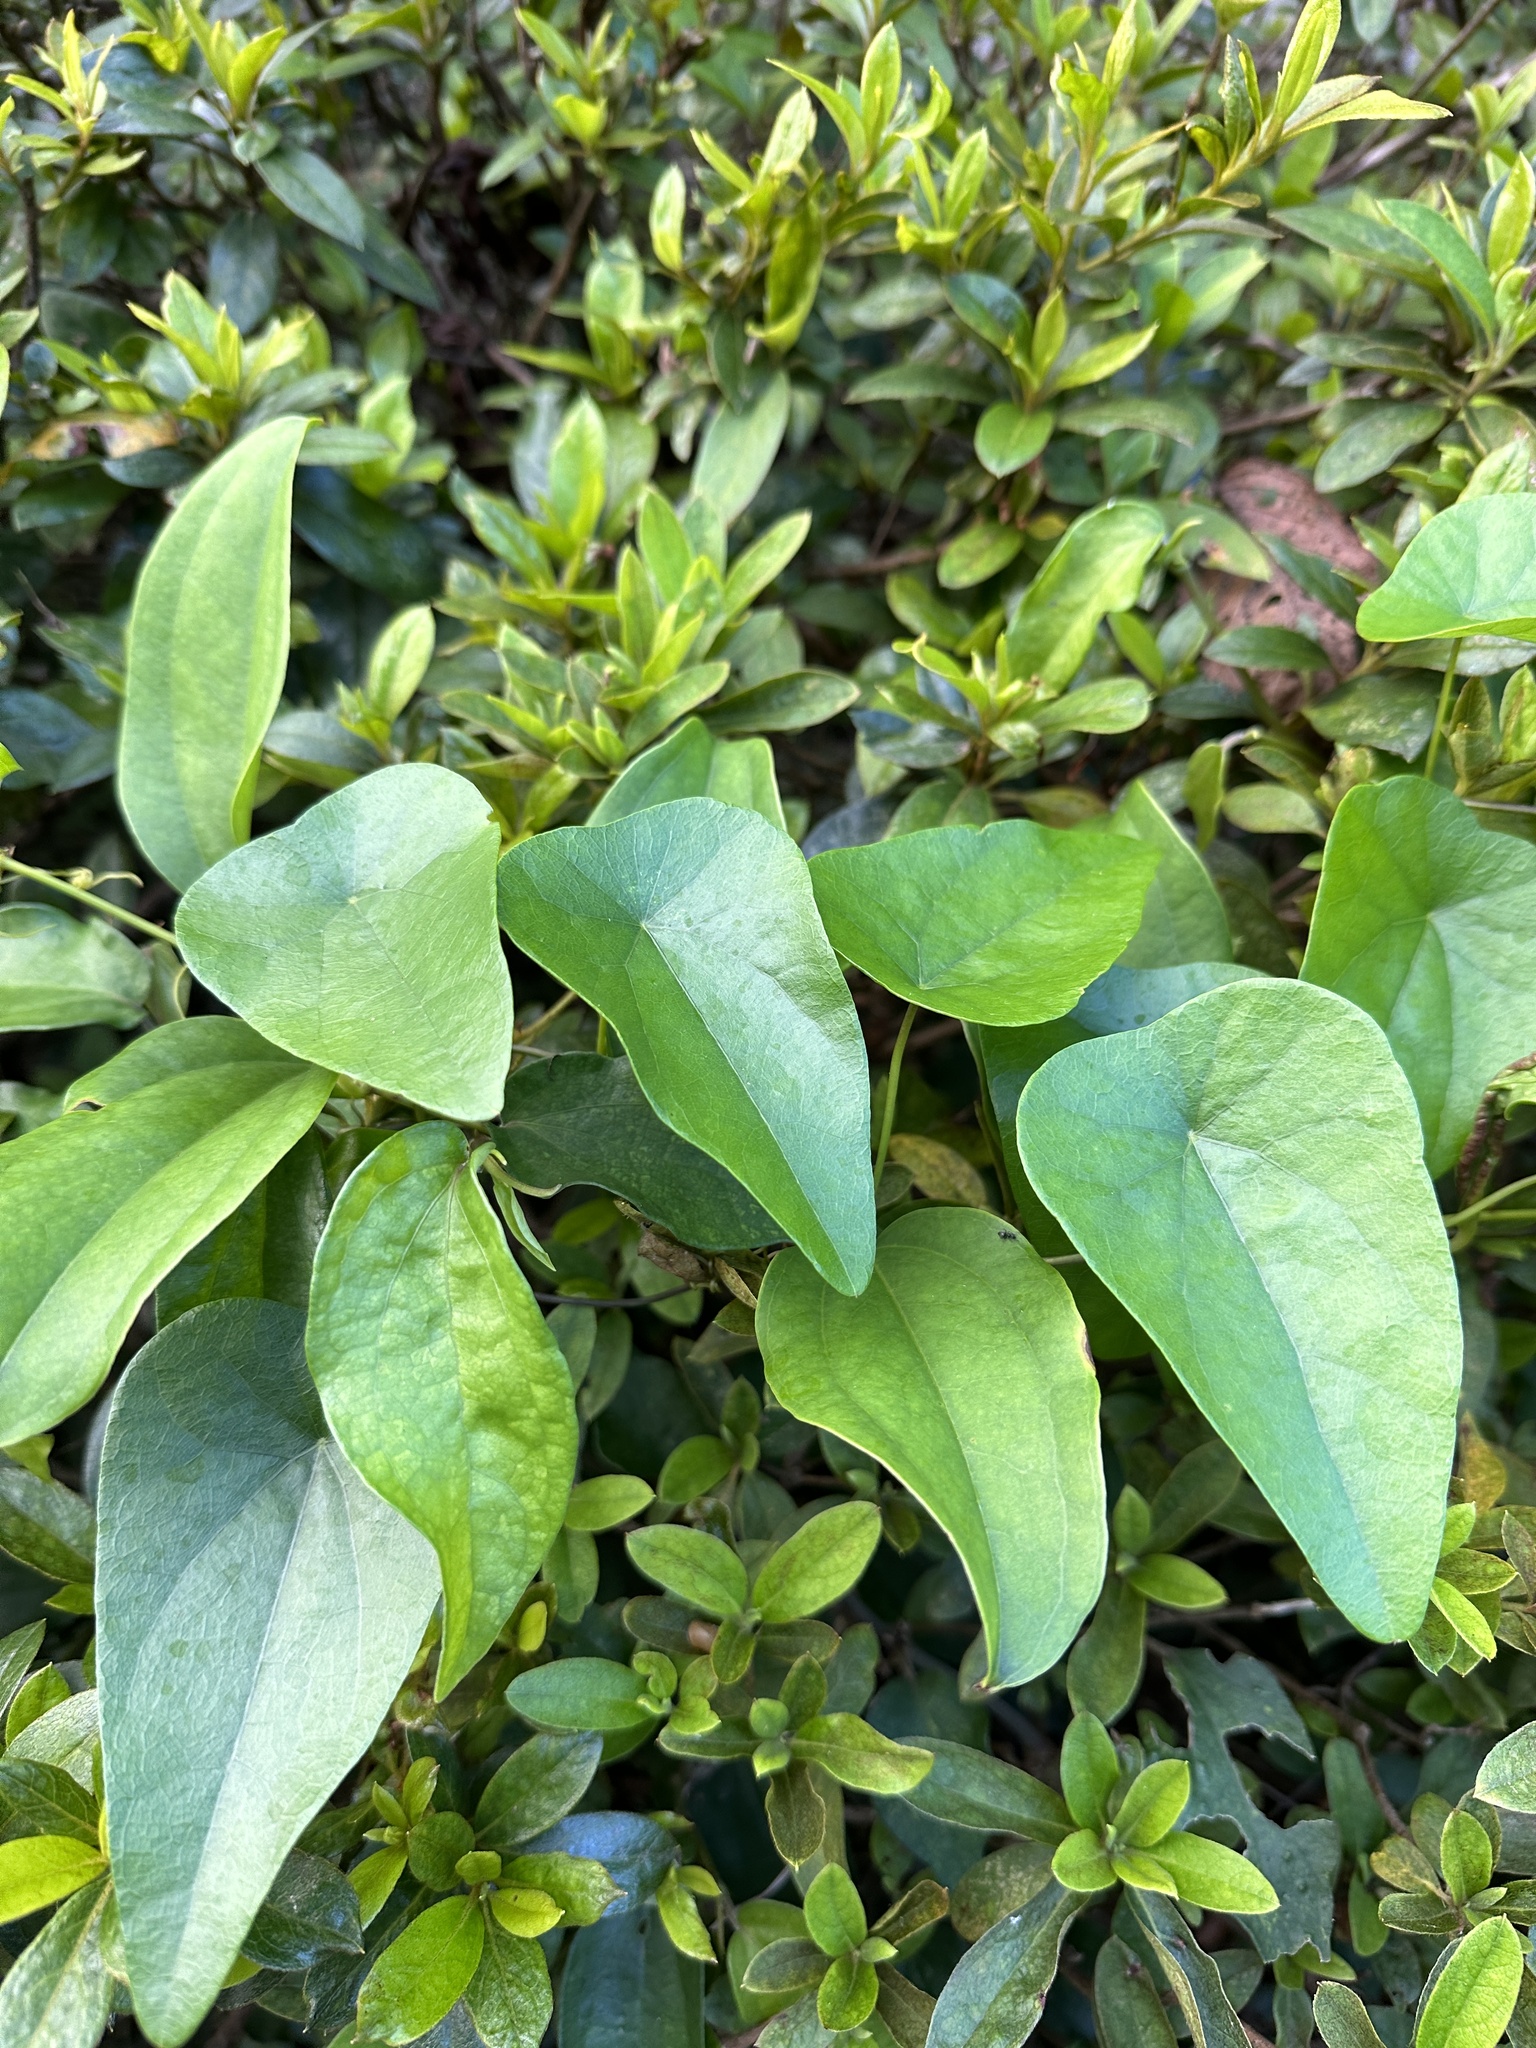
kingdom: Plantae
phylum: Tracheophyta
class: Magnoliopsida
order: Ranunculales
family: Menispermaceae
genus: Stephania
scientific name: Stephania longa
